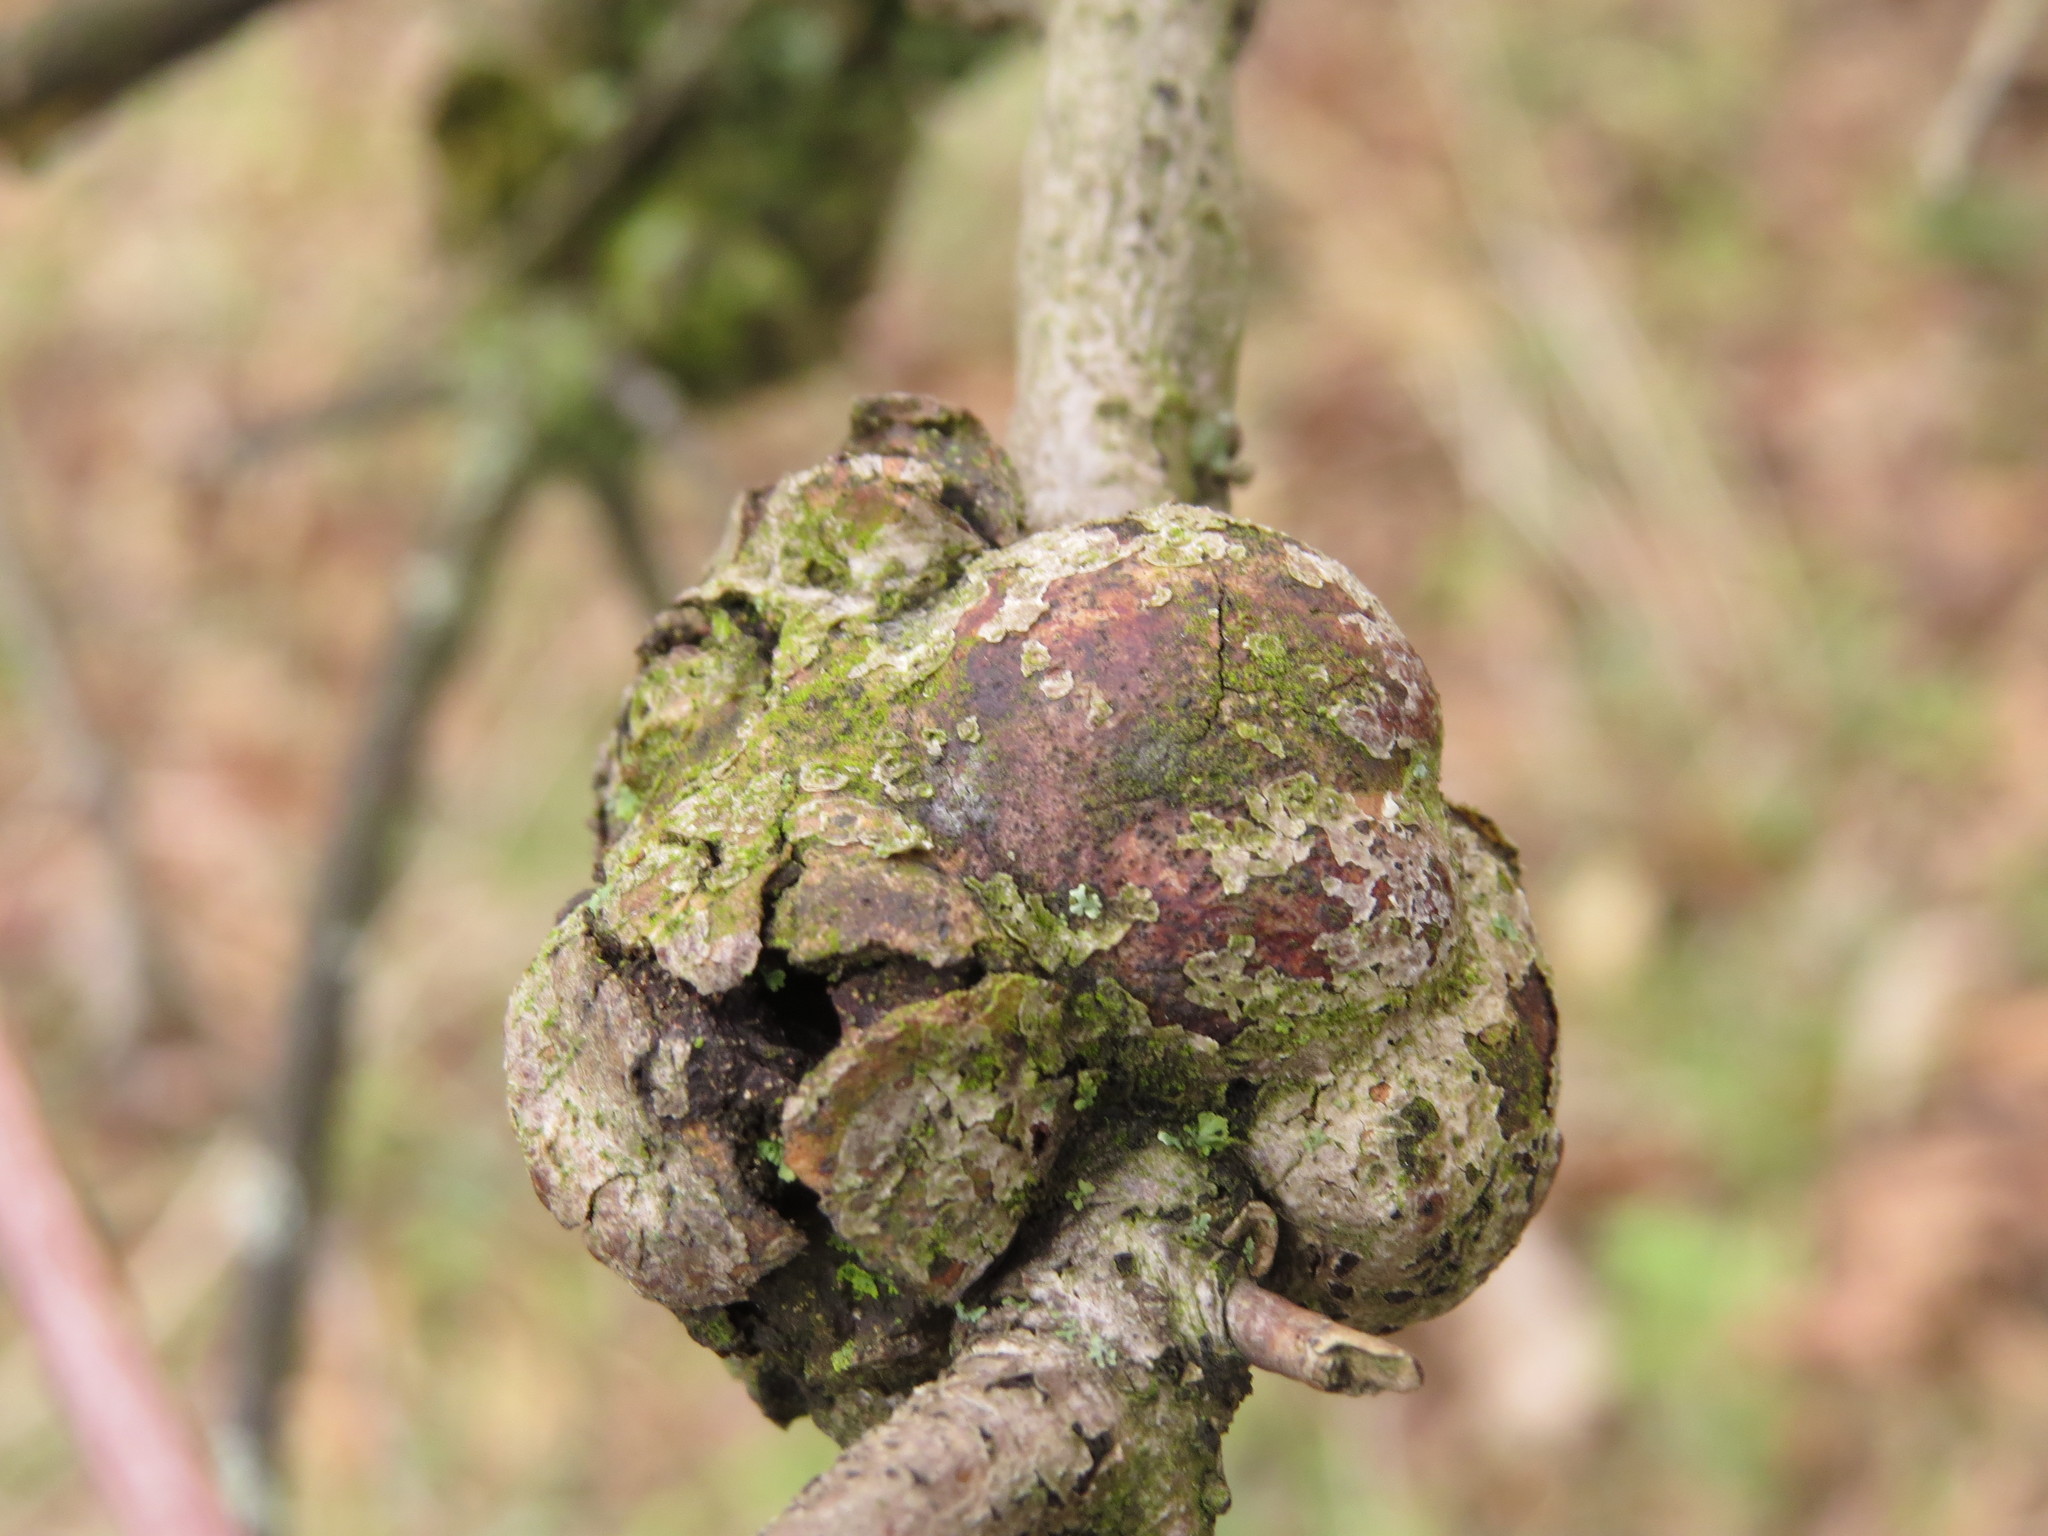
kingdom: Animalia
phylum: Arthropoda
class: Insecta
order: Hymenoptera
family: Cynipidae
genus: Callirhytis
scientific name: Callirhytis
